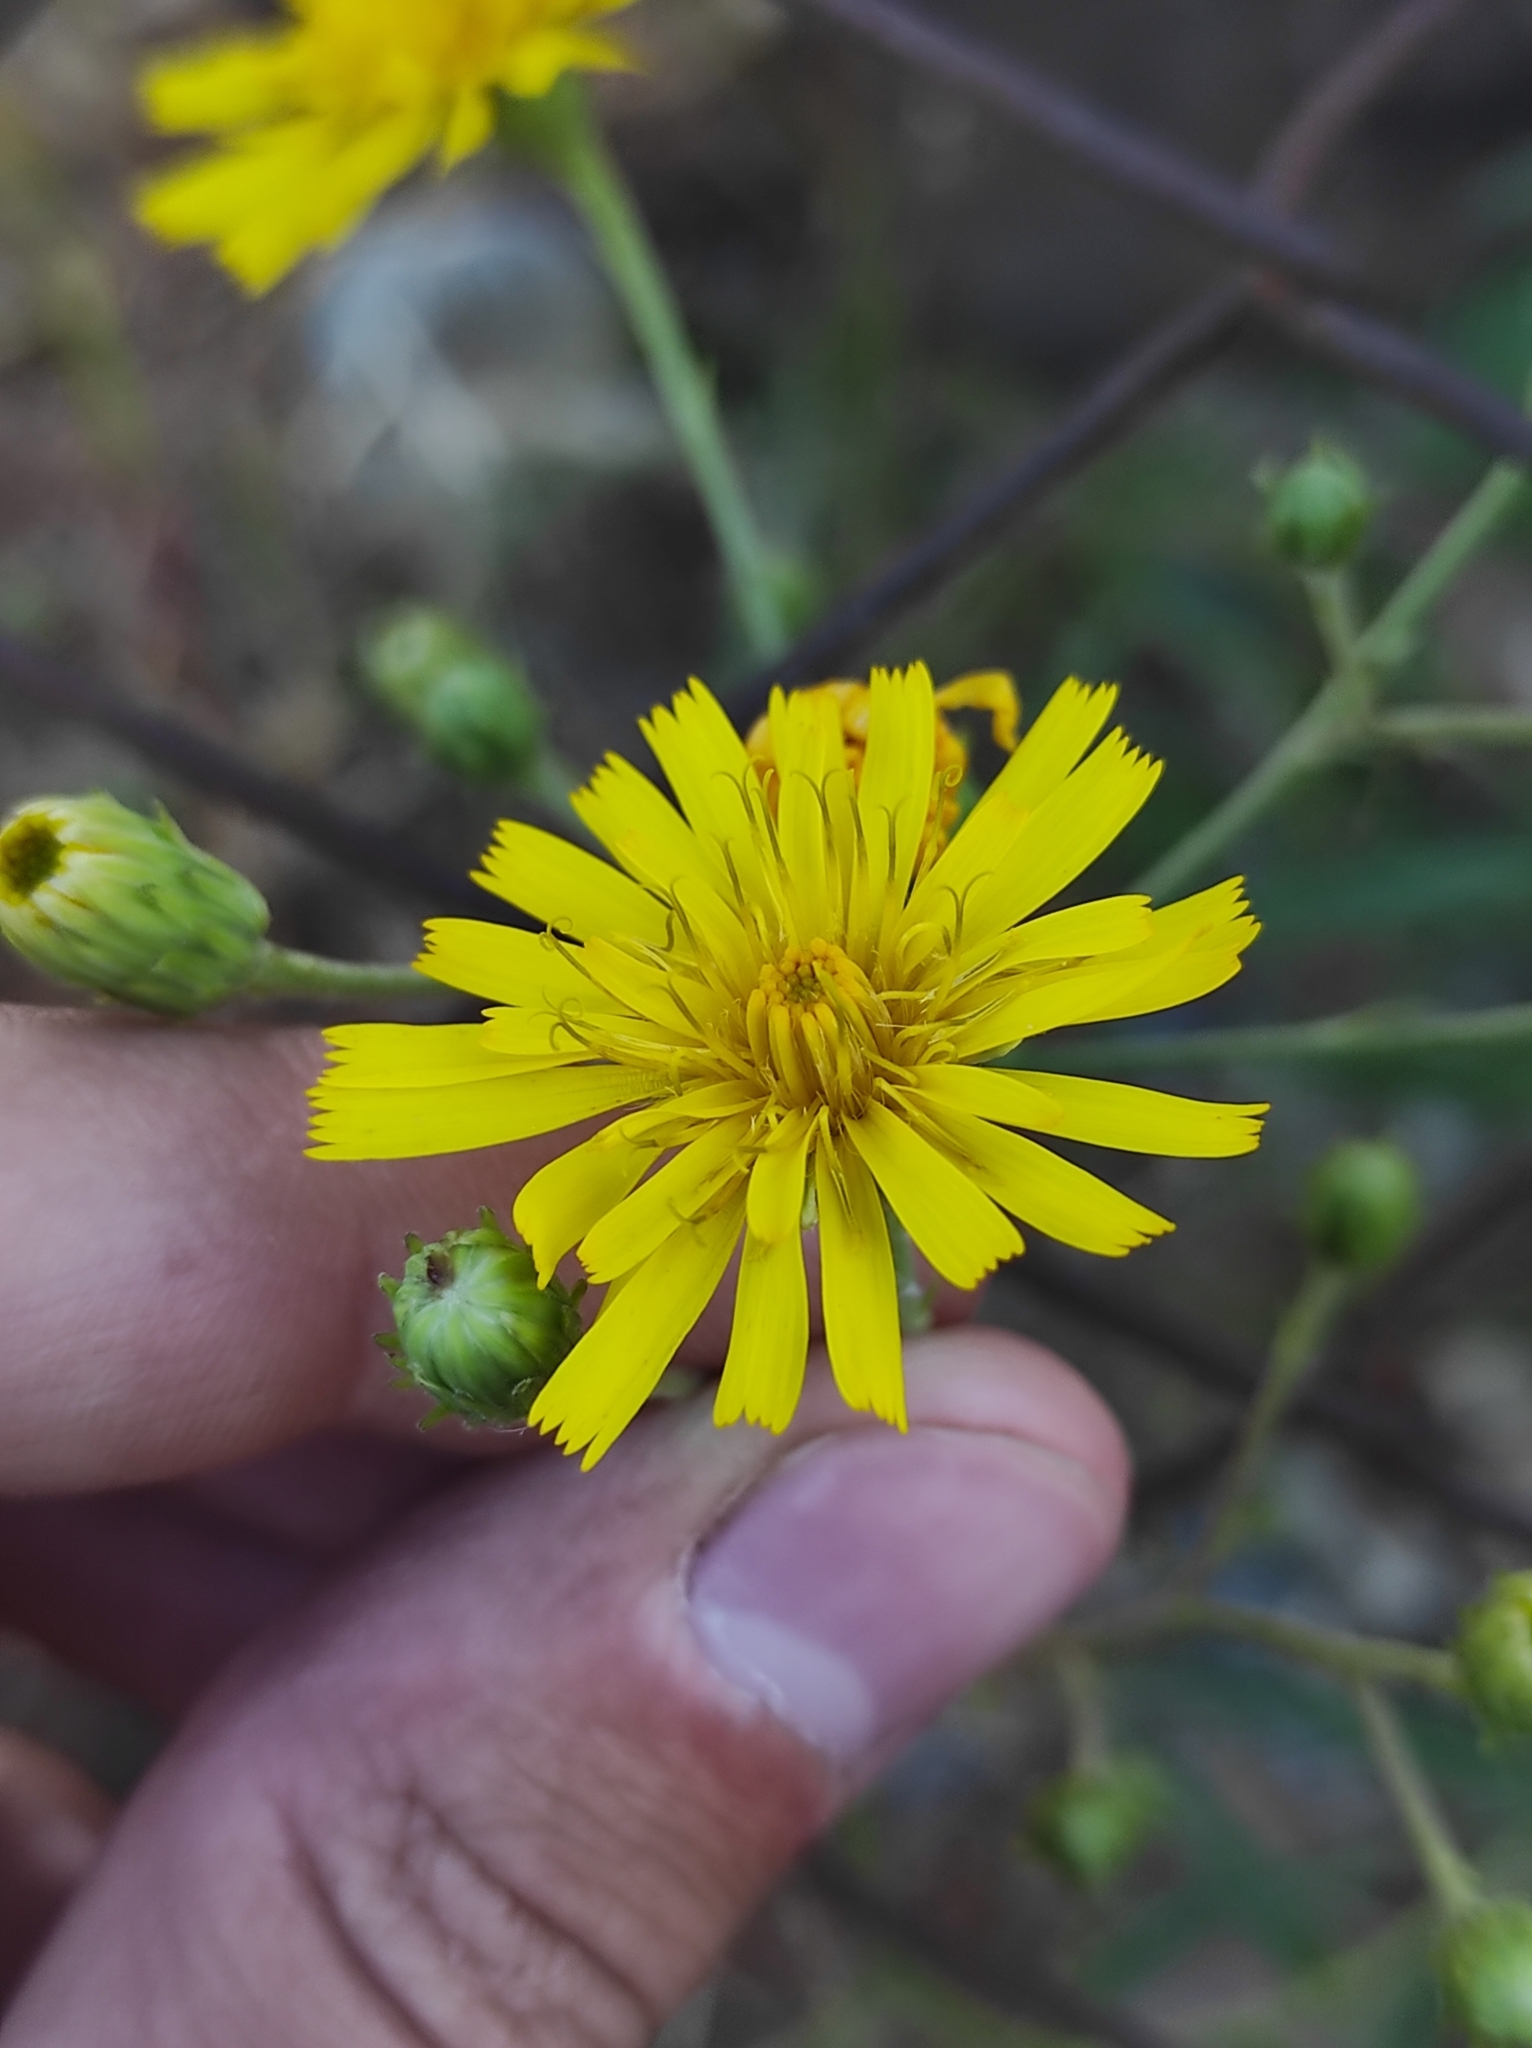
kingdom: Plantae
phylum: Tracheophyta
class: Magnoliopsida
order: Asterales
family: Asteraceae
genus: Hieracium
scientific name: Hieracium umbellatum
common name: Northern hawkweed
